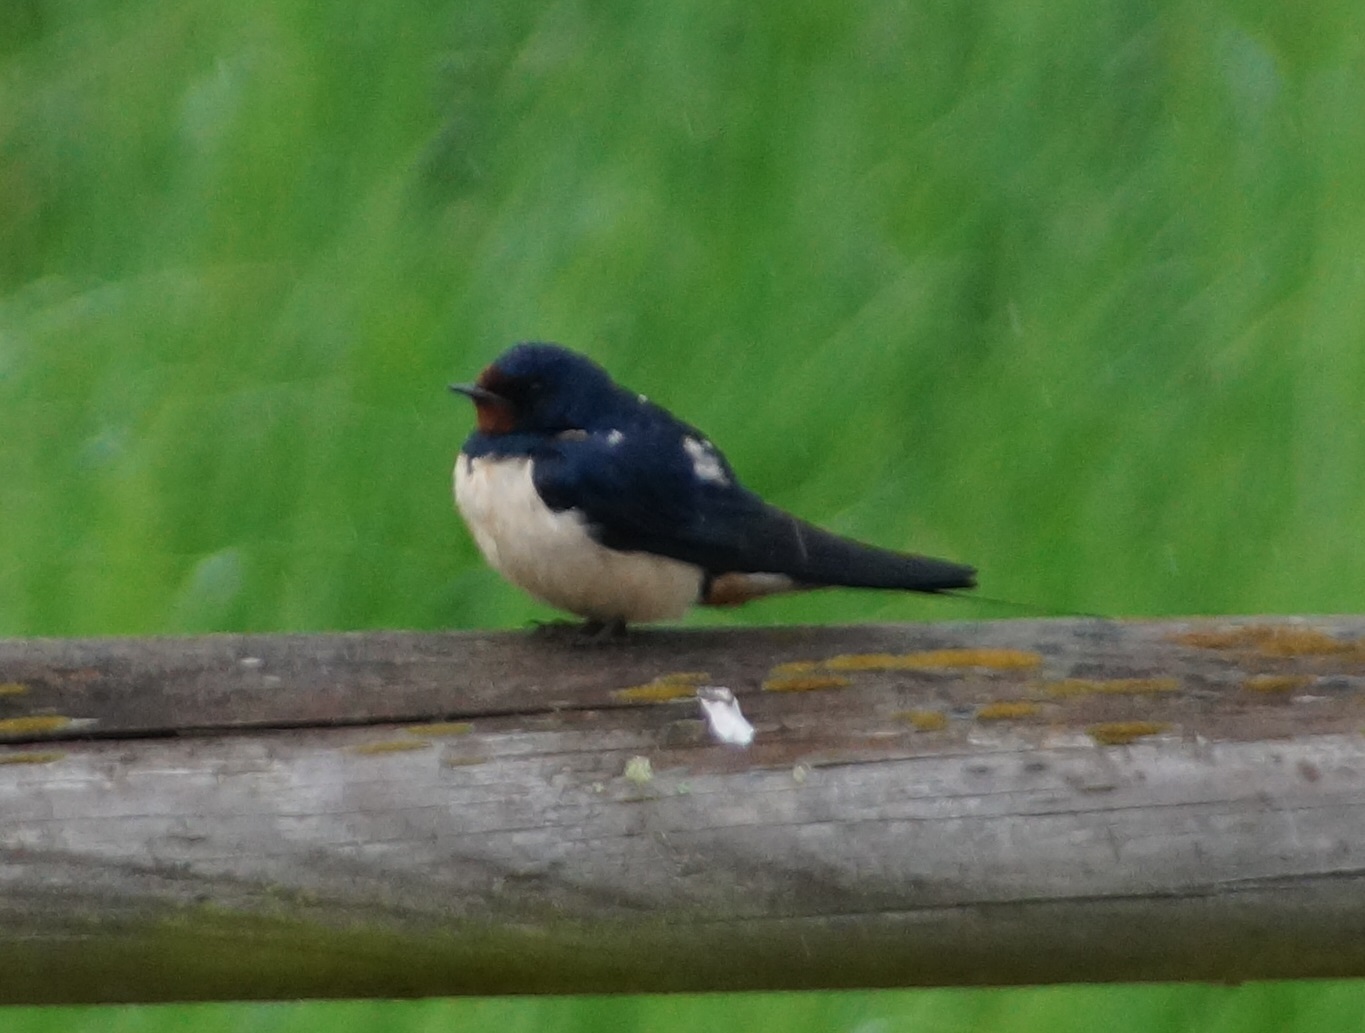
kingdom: Animalia
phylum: Chordata
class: Aves
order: Passeriformes
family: Hirundinidae
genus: Hirundo
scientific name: Hirundo rustica
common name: Barn swallow
